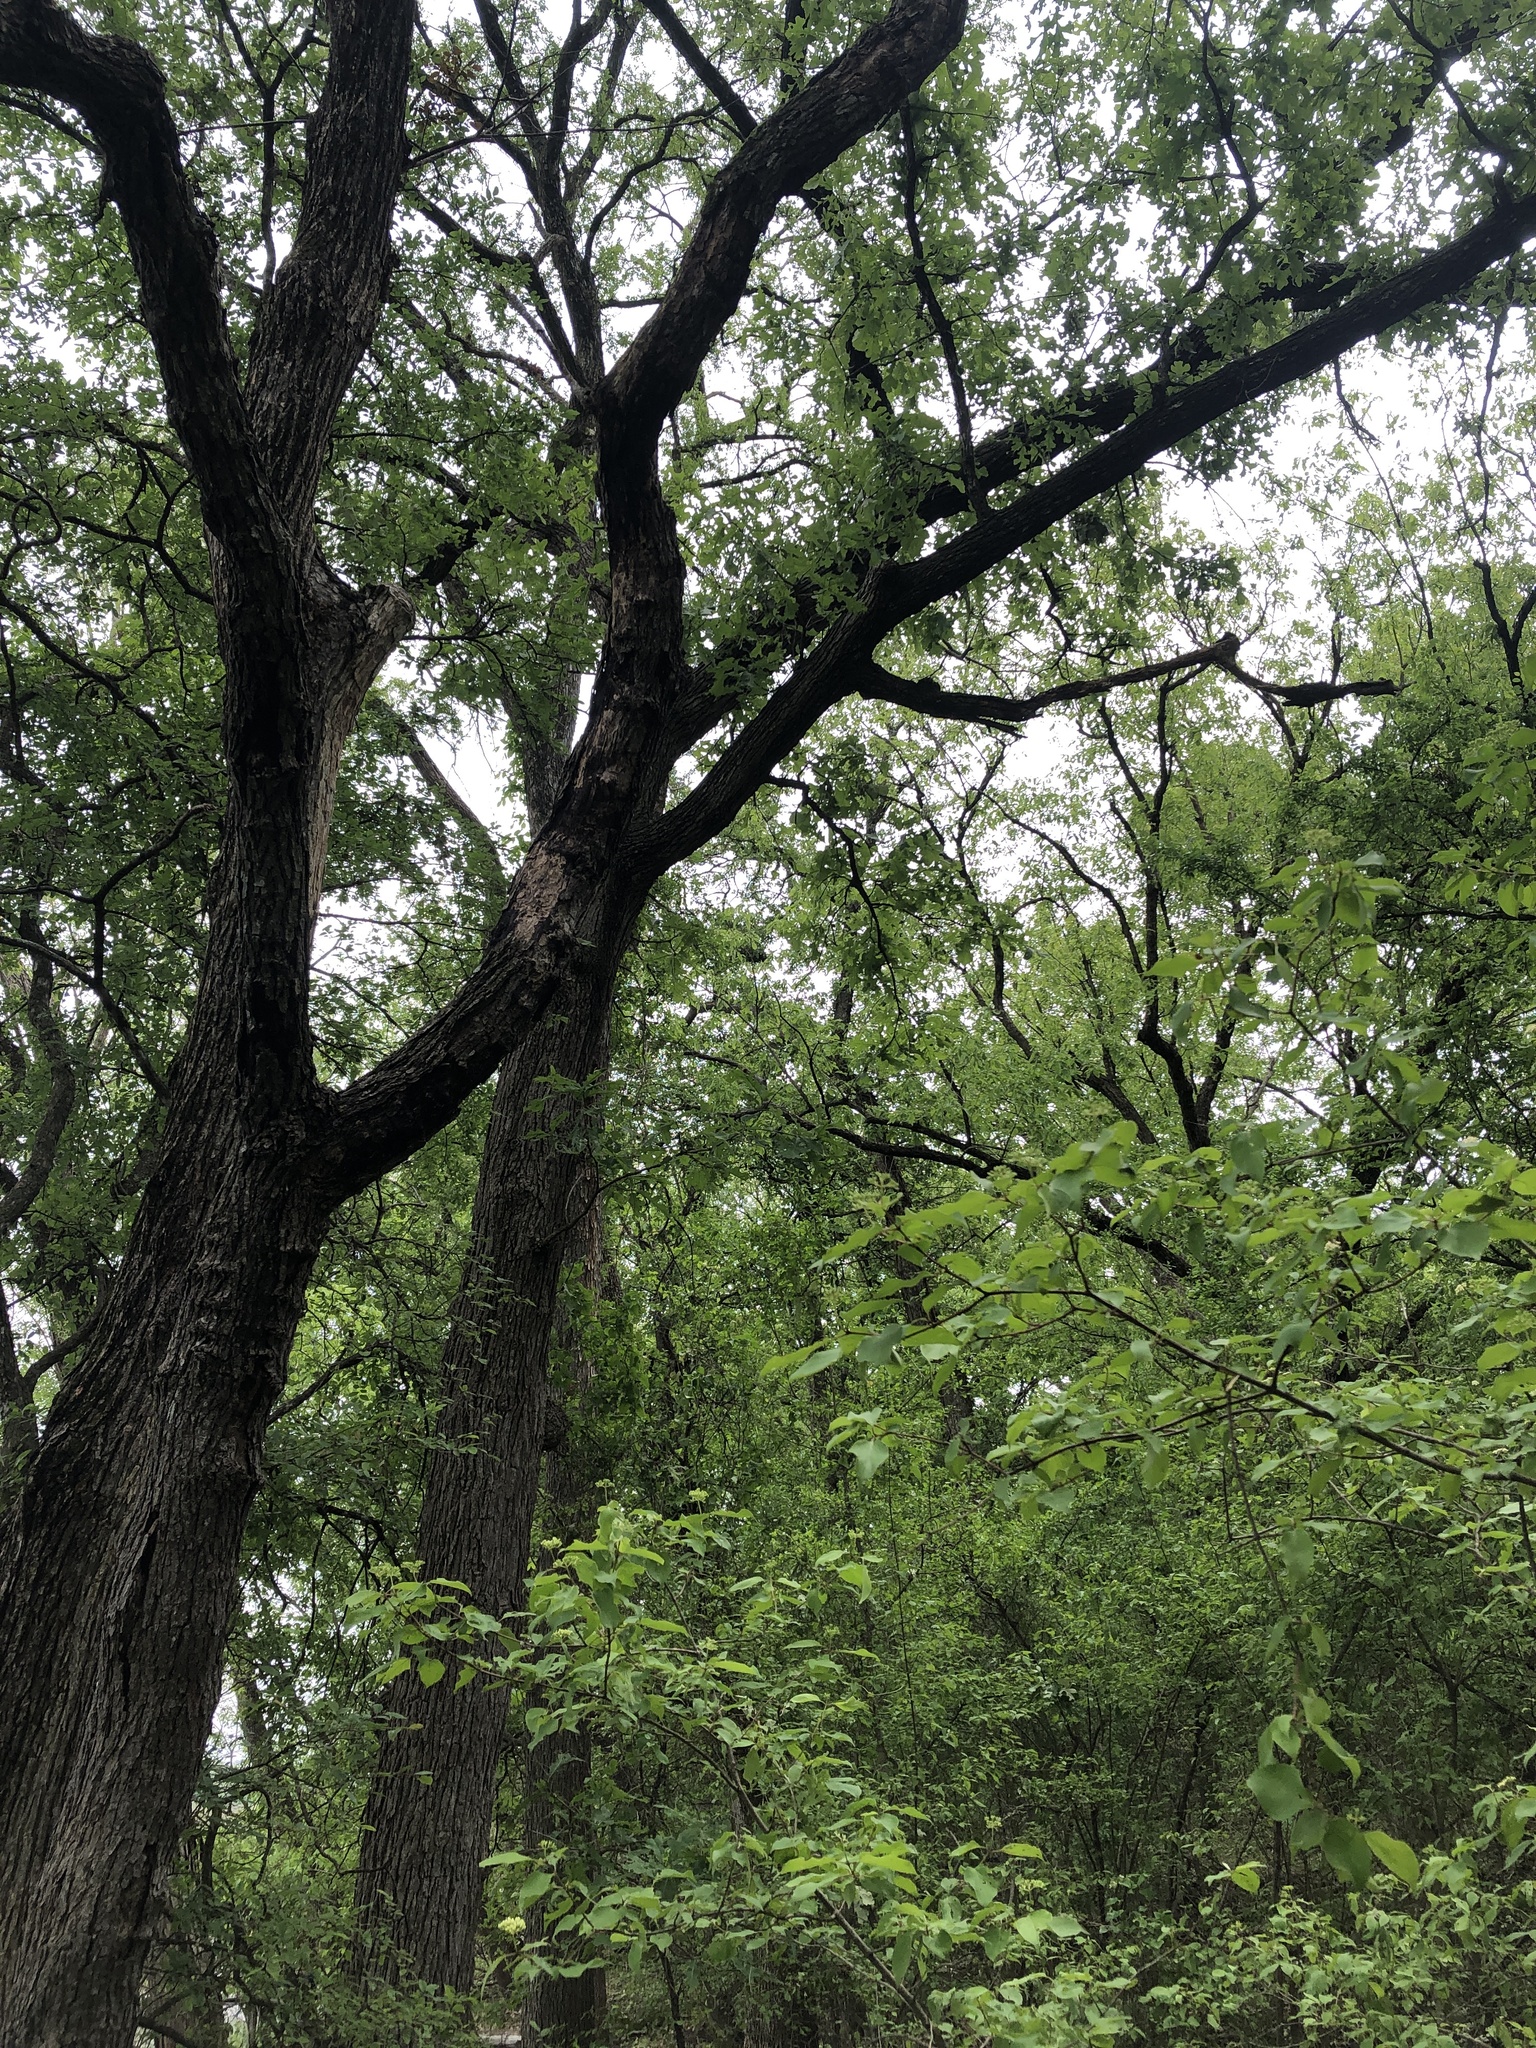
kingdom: Plantae
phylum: Tracheophyta
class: Magnoliopsida
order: Fagales
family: Fagaceae
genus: Quercus
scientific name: Quercus macrocarpa
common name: Bur oak
